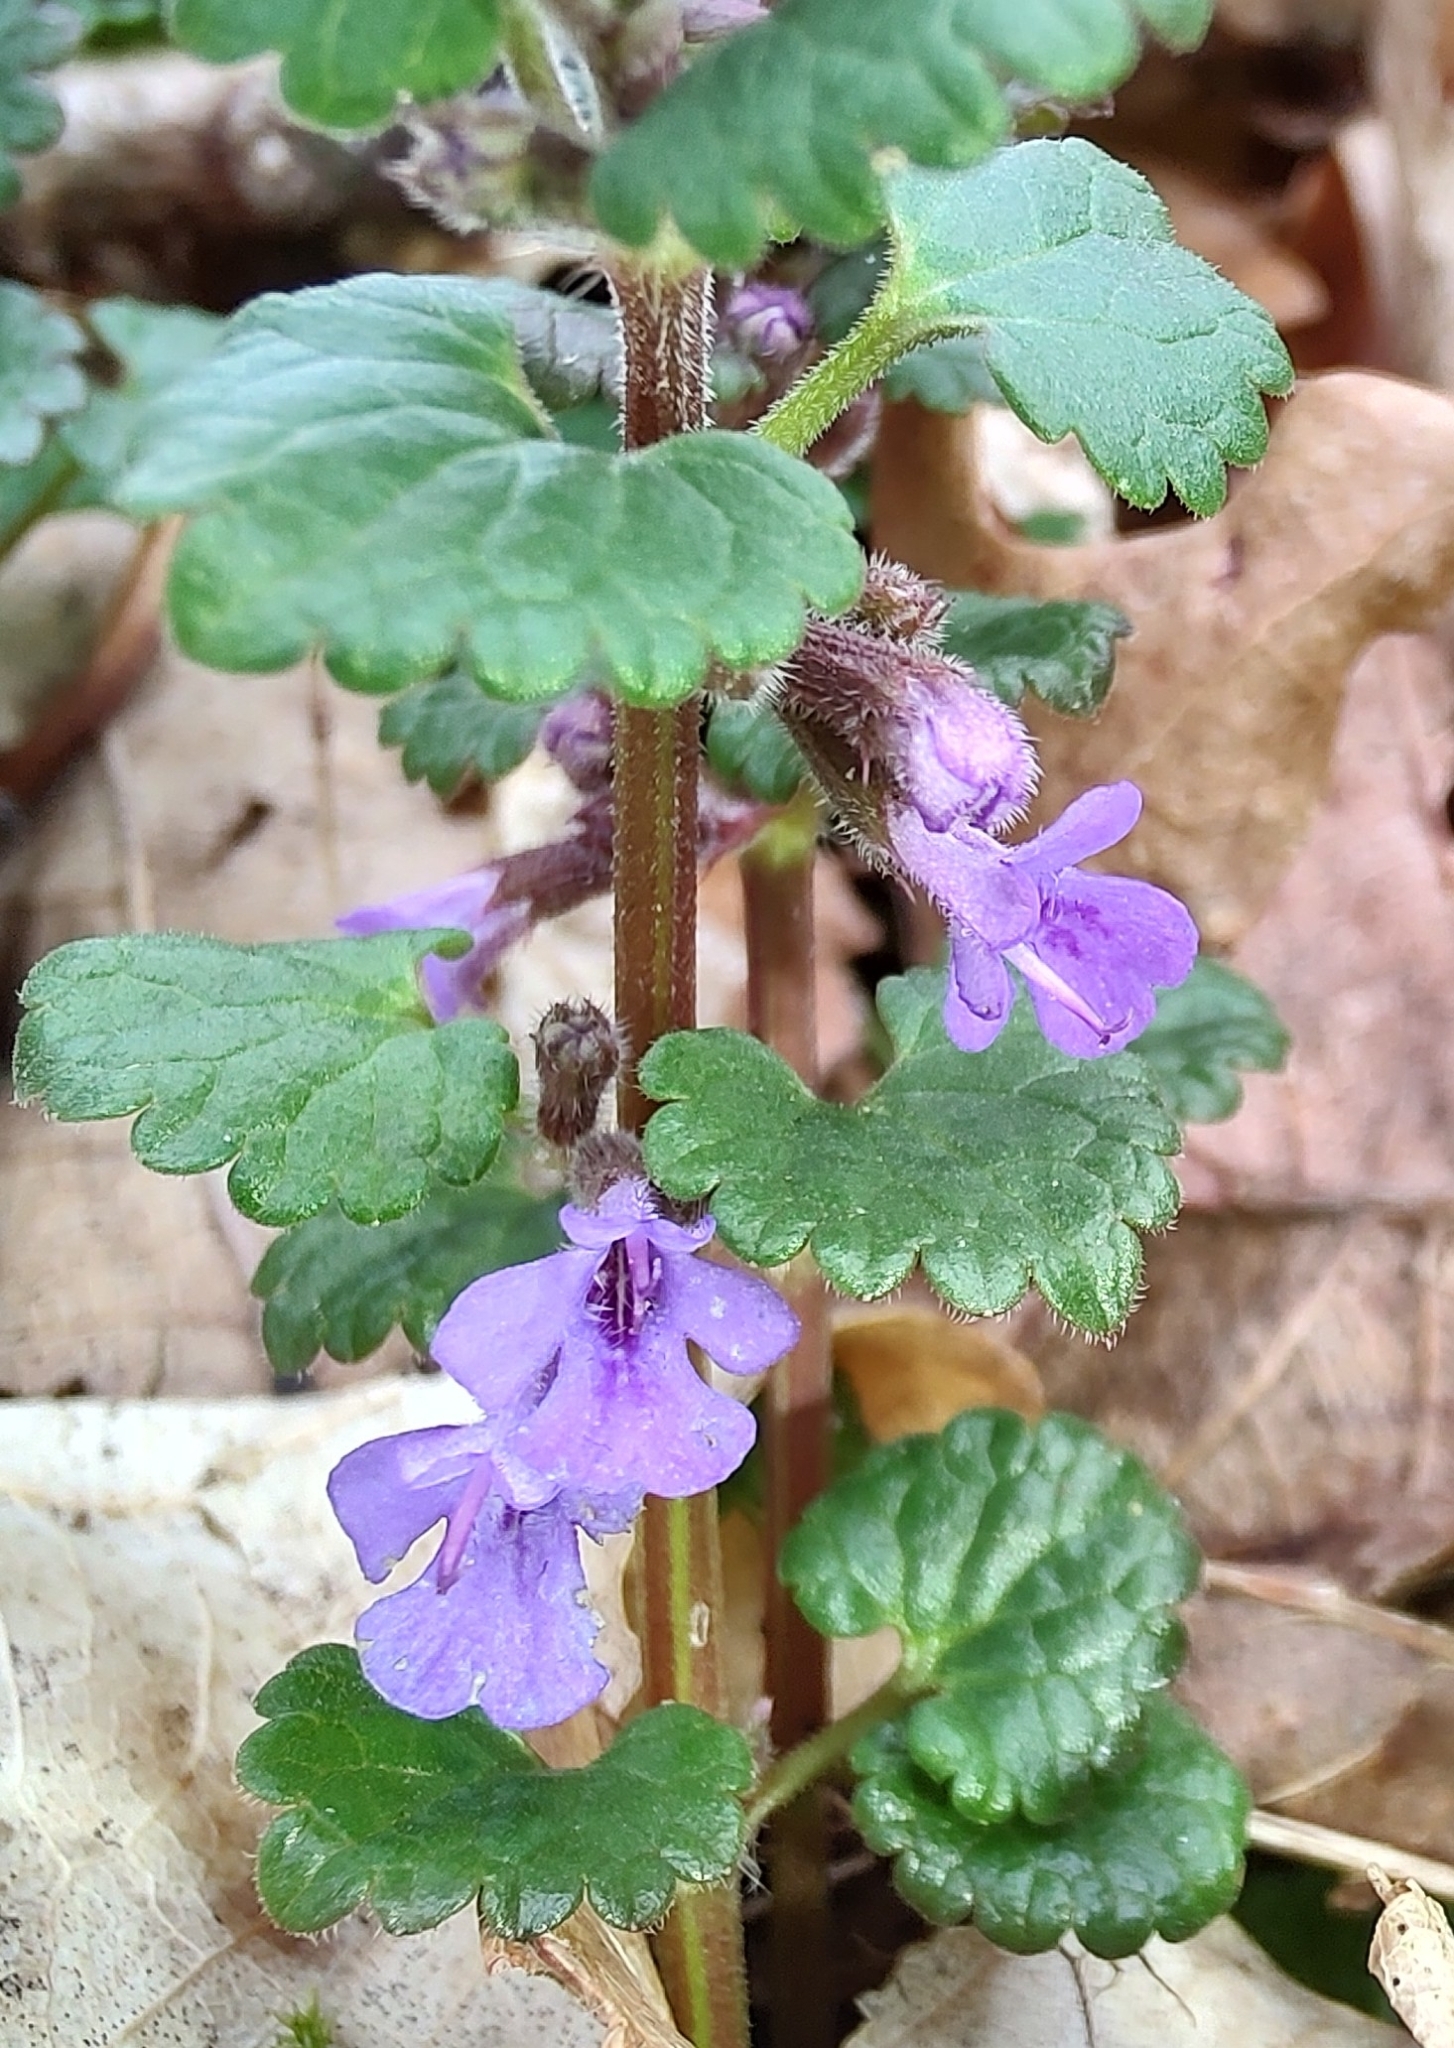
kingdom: Plantae
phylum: Tracheophyta
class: Magnoliopsida
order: Lamiales
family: Lamiaceae
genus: Glechoma
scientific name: Glechoma hederacea
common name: Ground ivy
